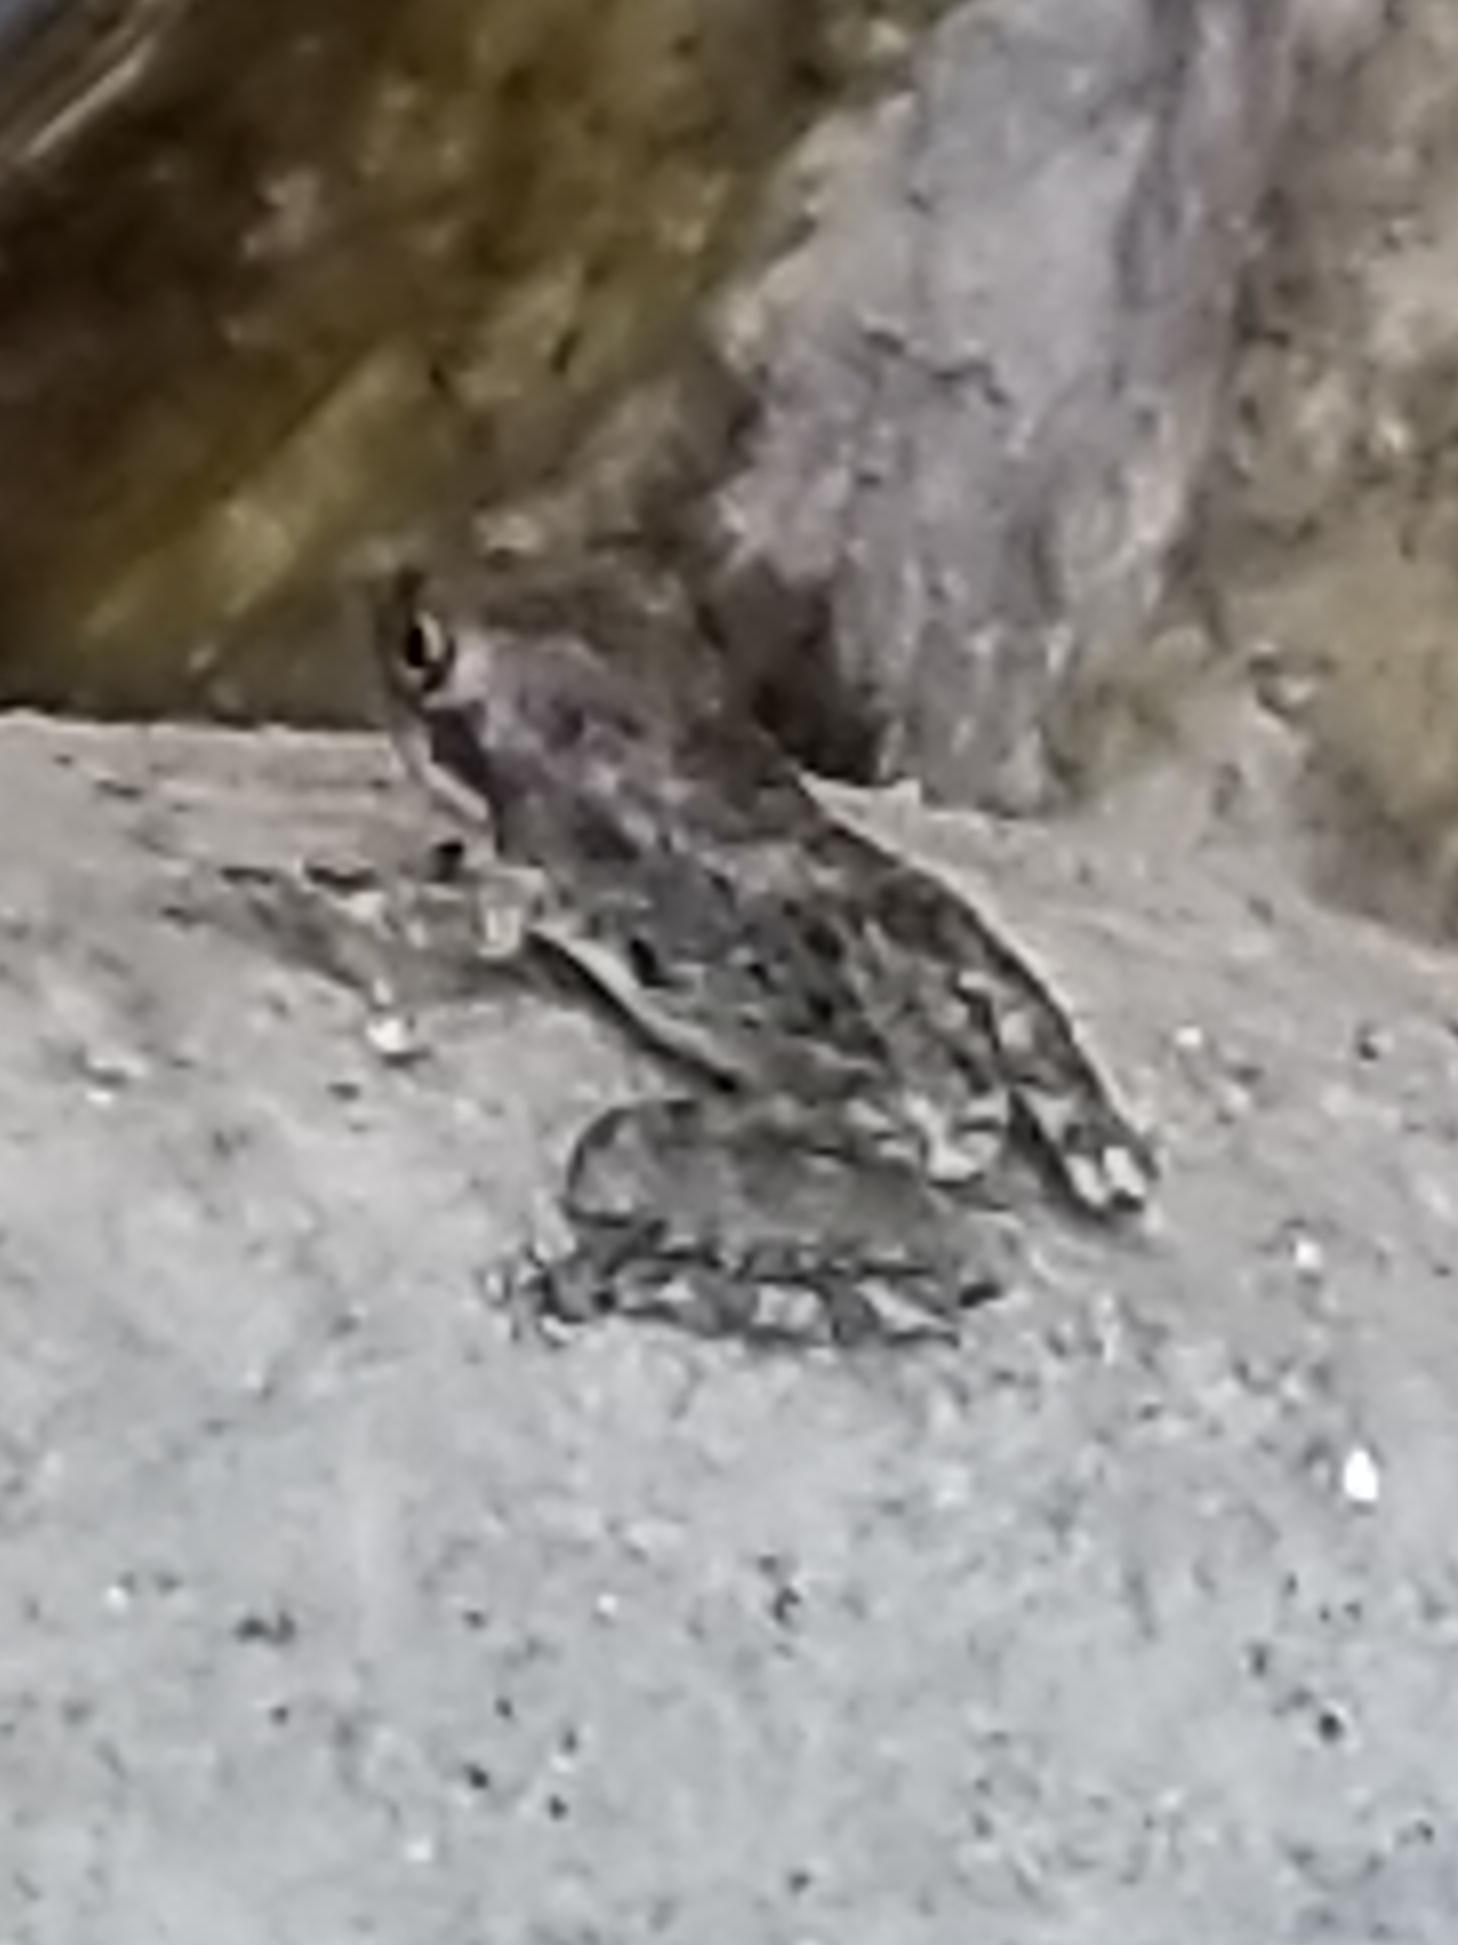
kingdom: Animalia
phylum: Chordata
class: Amphibia
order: Anura
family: Hylidae
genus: Pseudacris
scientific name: Pseudacris regilla
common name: Pacific chorus frog
